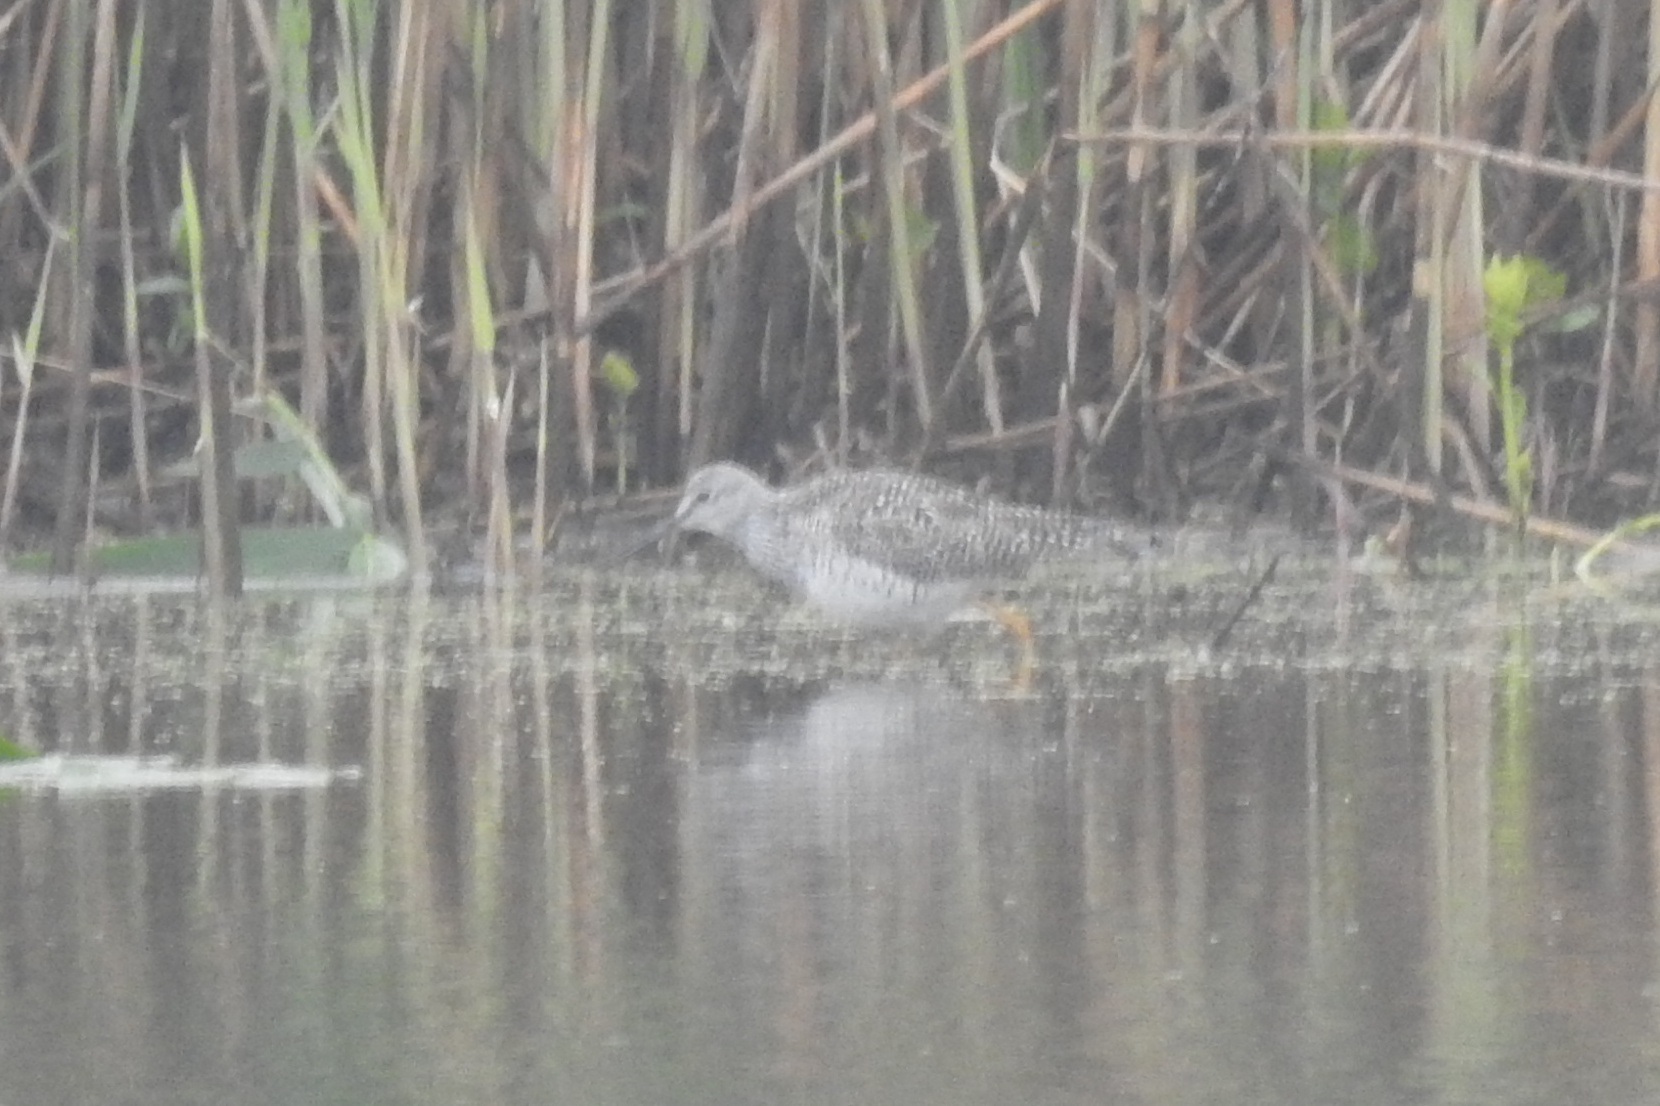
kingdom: Animalia
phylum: Chordata
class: Aves
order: Charadriiformes
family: Scolopacidae
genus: Tringa
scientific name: Tringa flavipes
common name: Lesser yellowlegs
